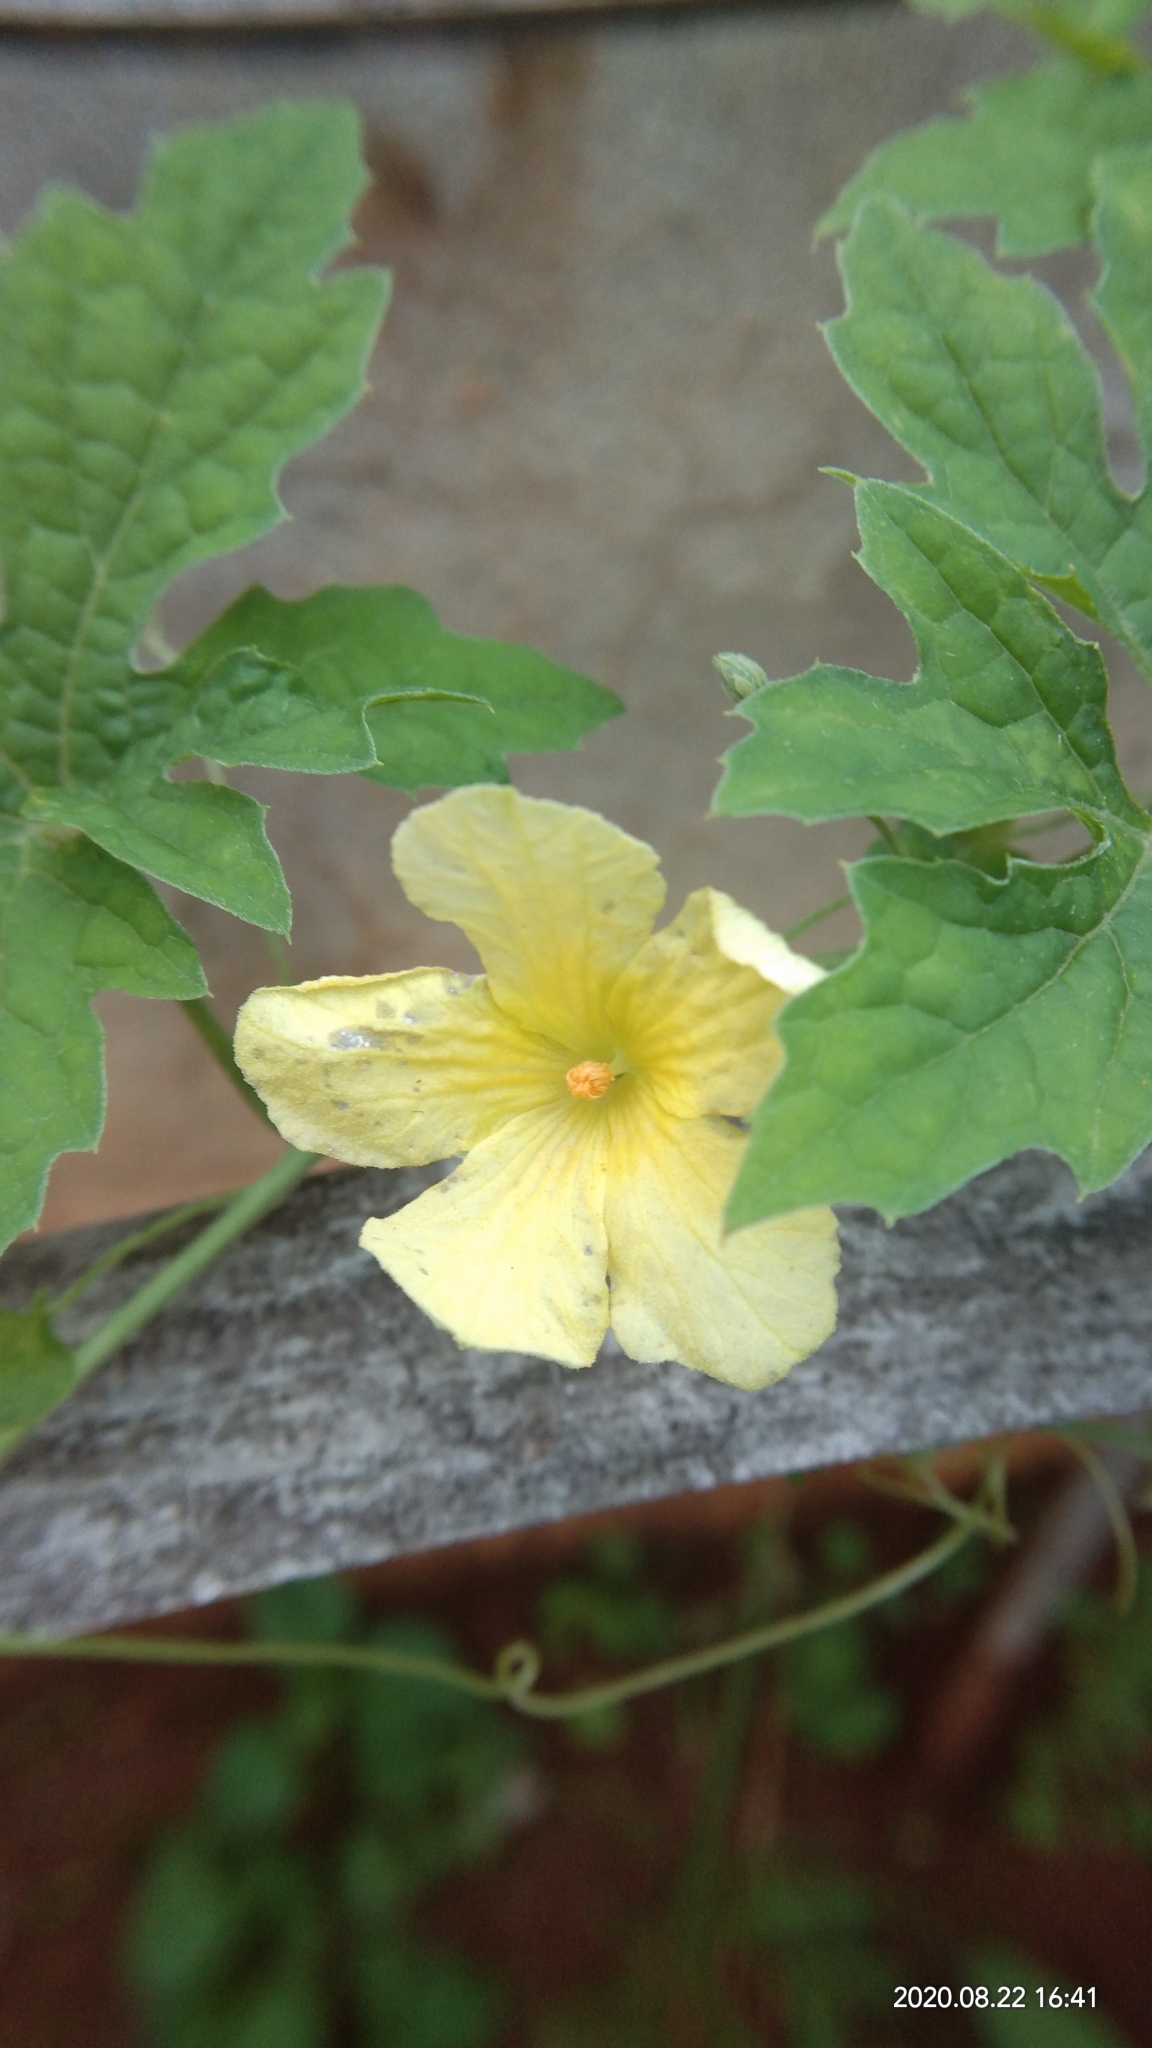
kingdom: Plantae
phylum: Tracheophyta
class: Magnoliopsida
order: Cucurbitales
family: Cucurbitaceae
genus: Momordica
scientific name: Momordica charantia
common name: Balsampear
